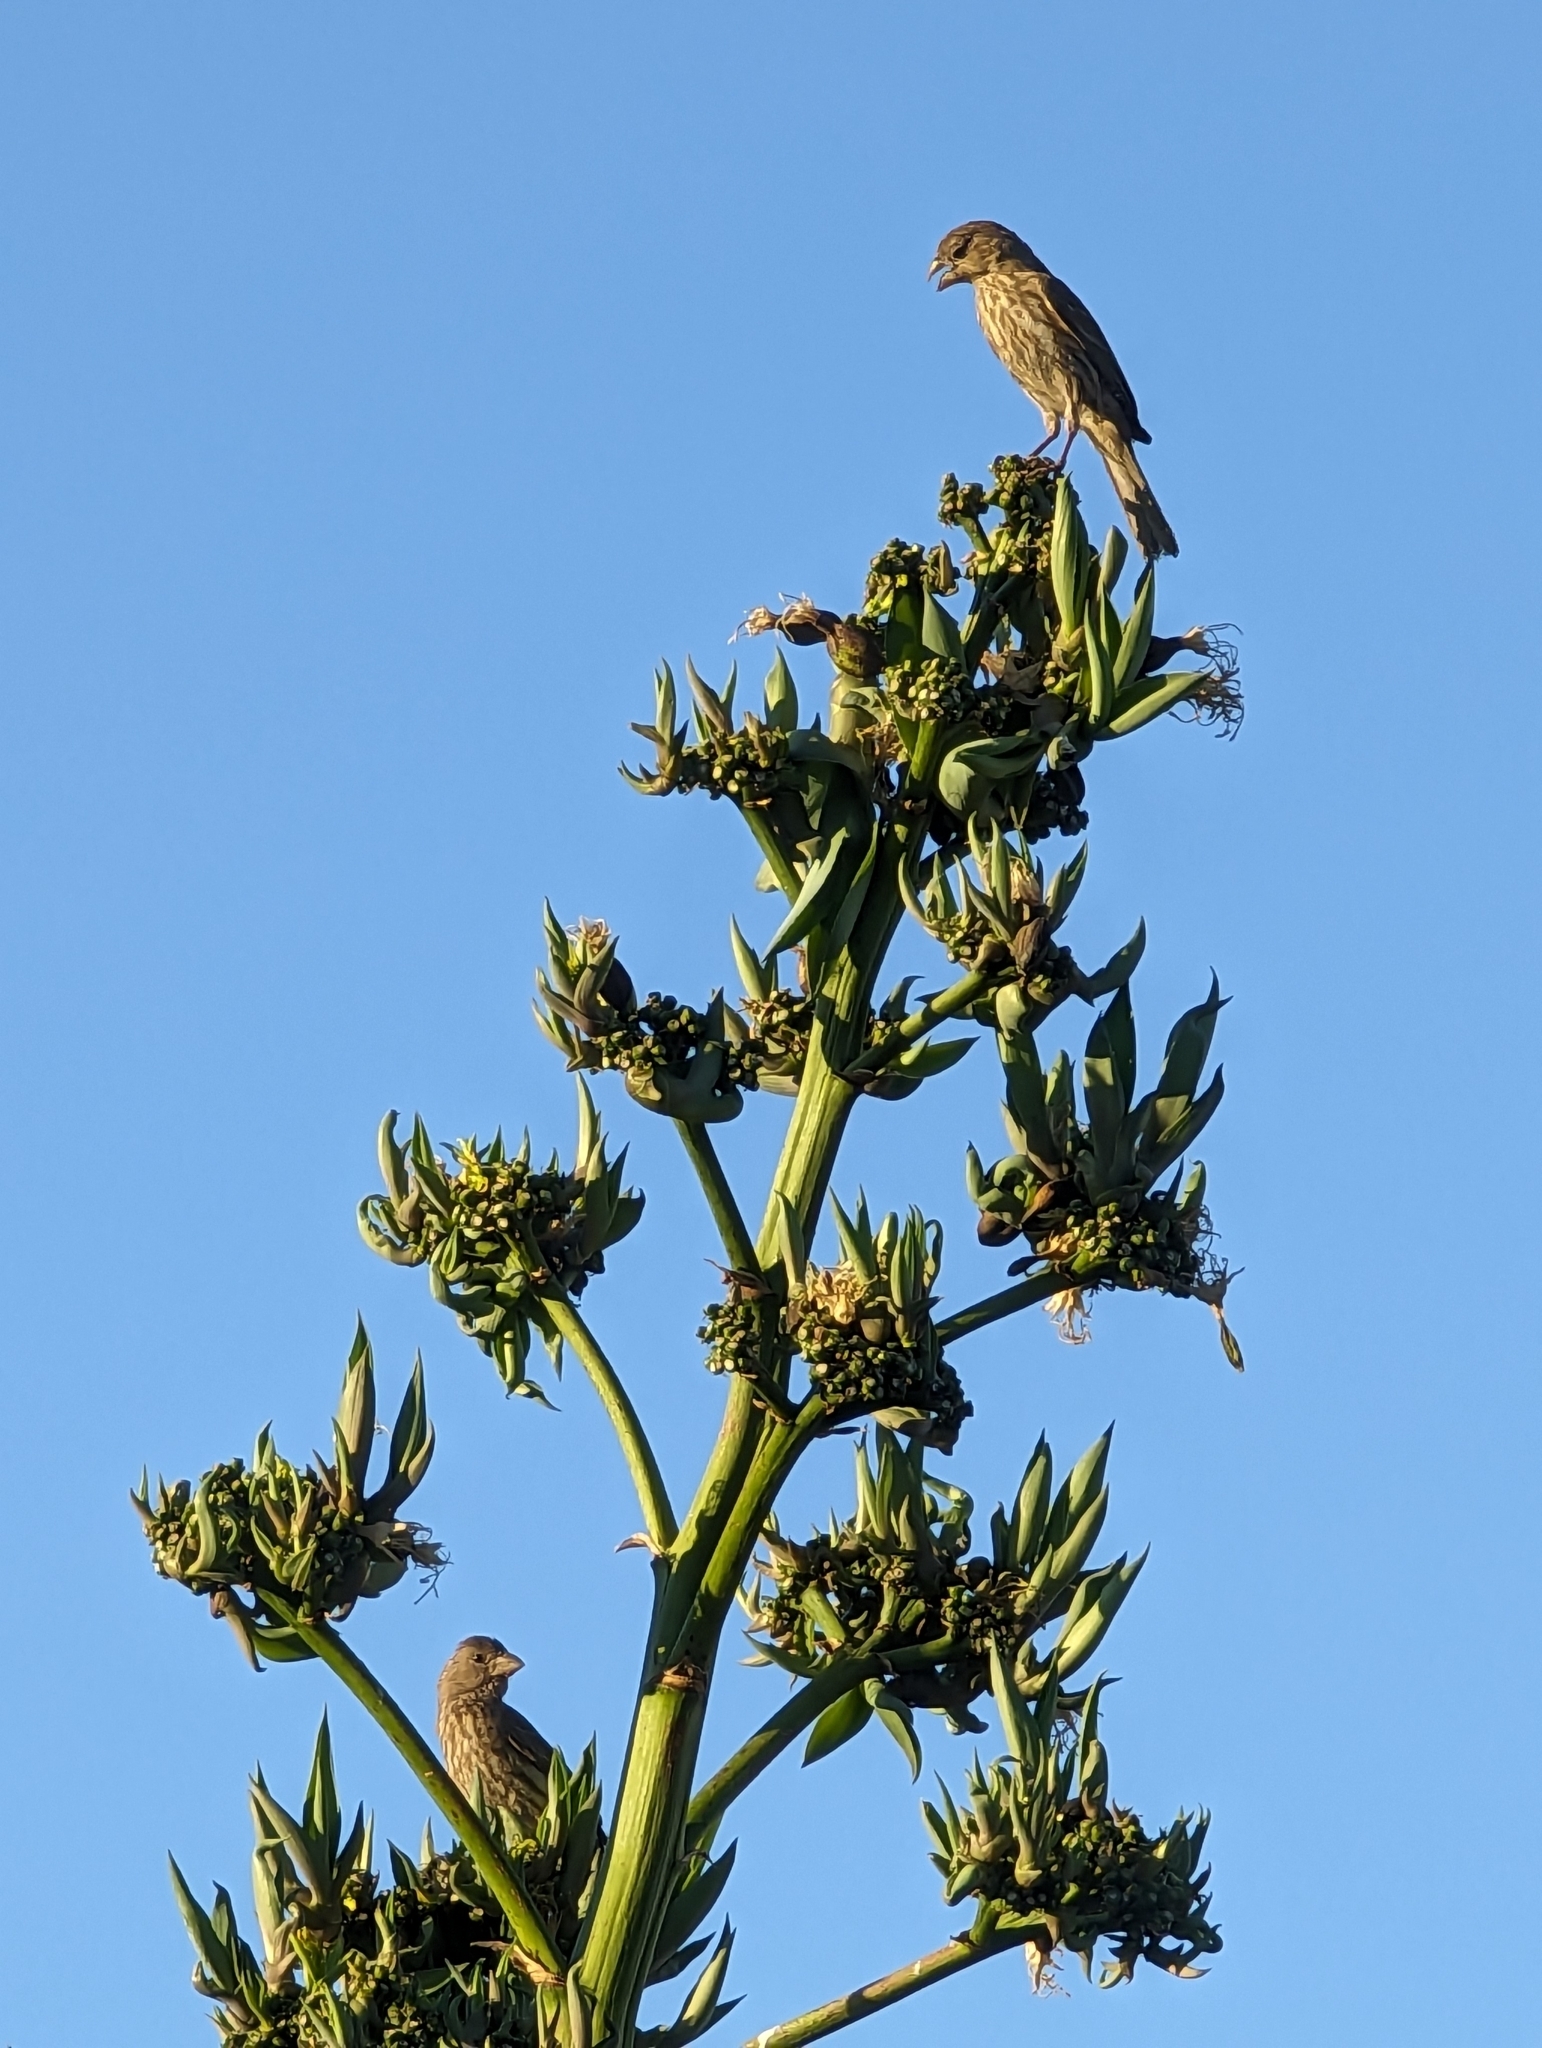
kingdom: Animalia
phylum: Chordata
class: Aves
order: Passeriformes
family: Fringillidae
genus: Haemorhous
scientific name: Haemorhous mexicanus
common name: House finch
